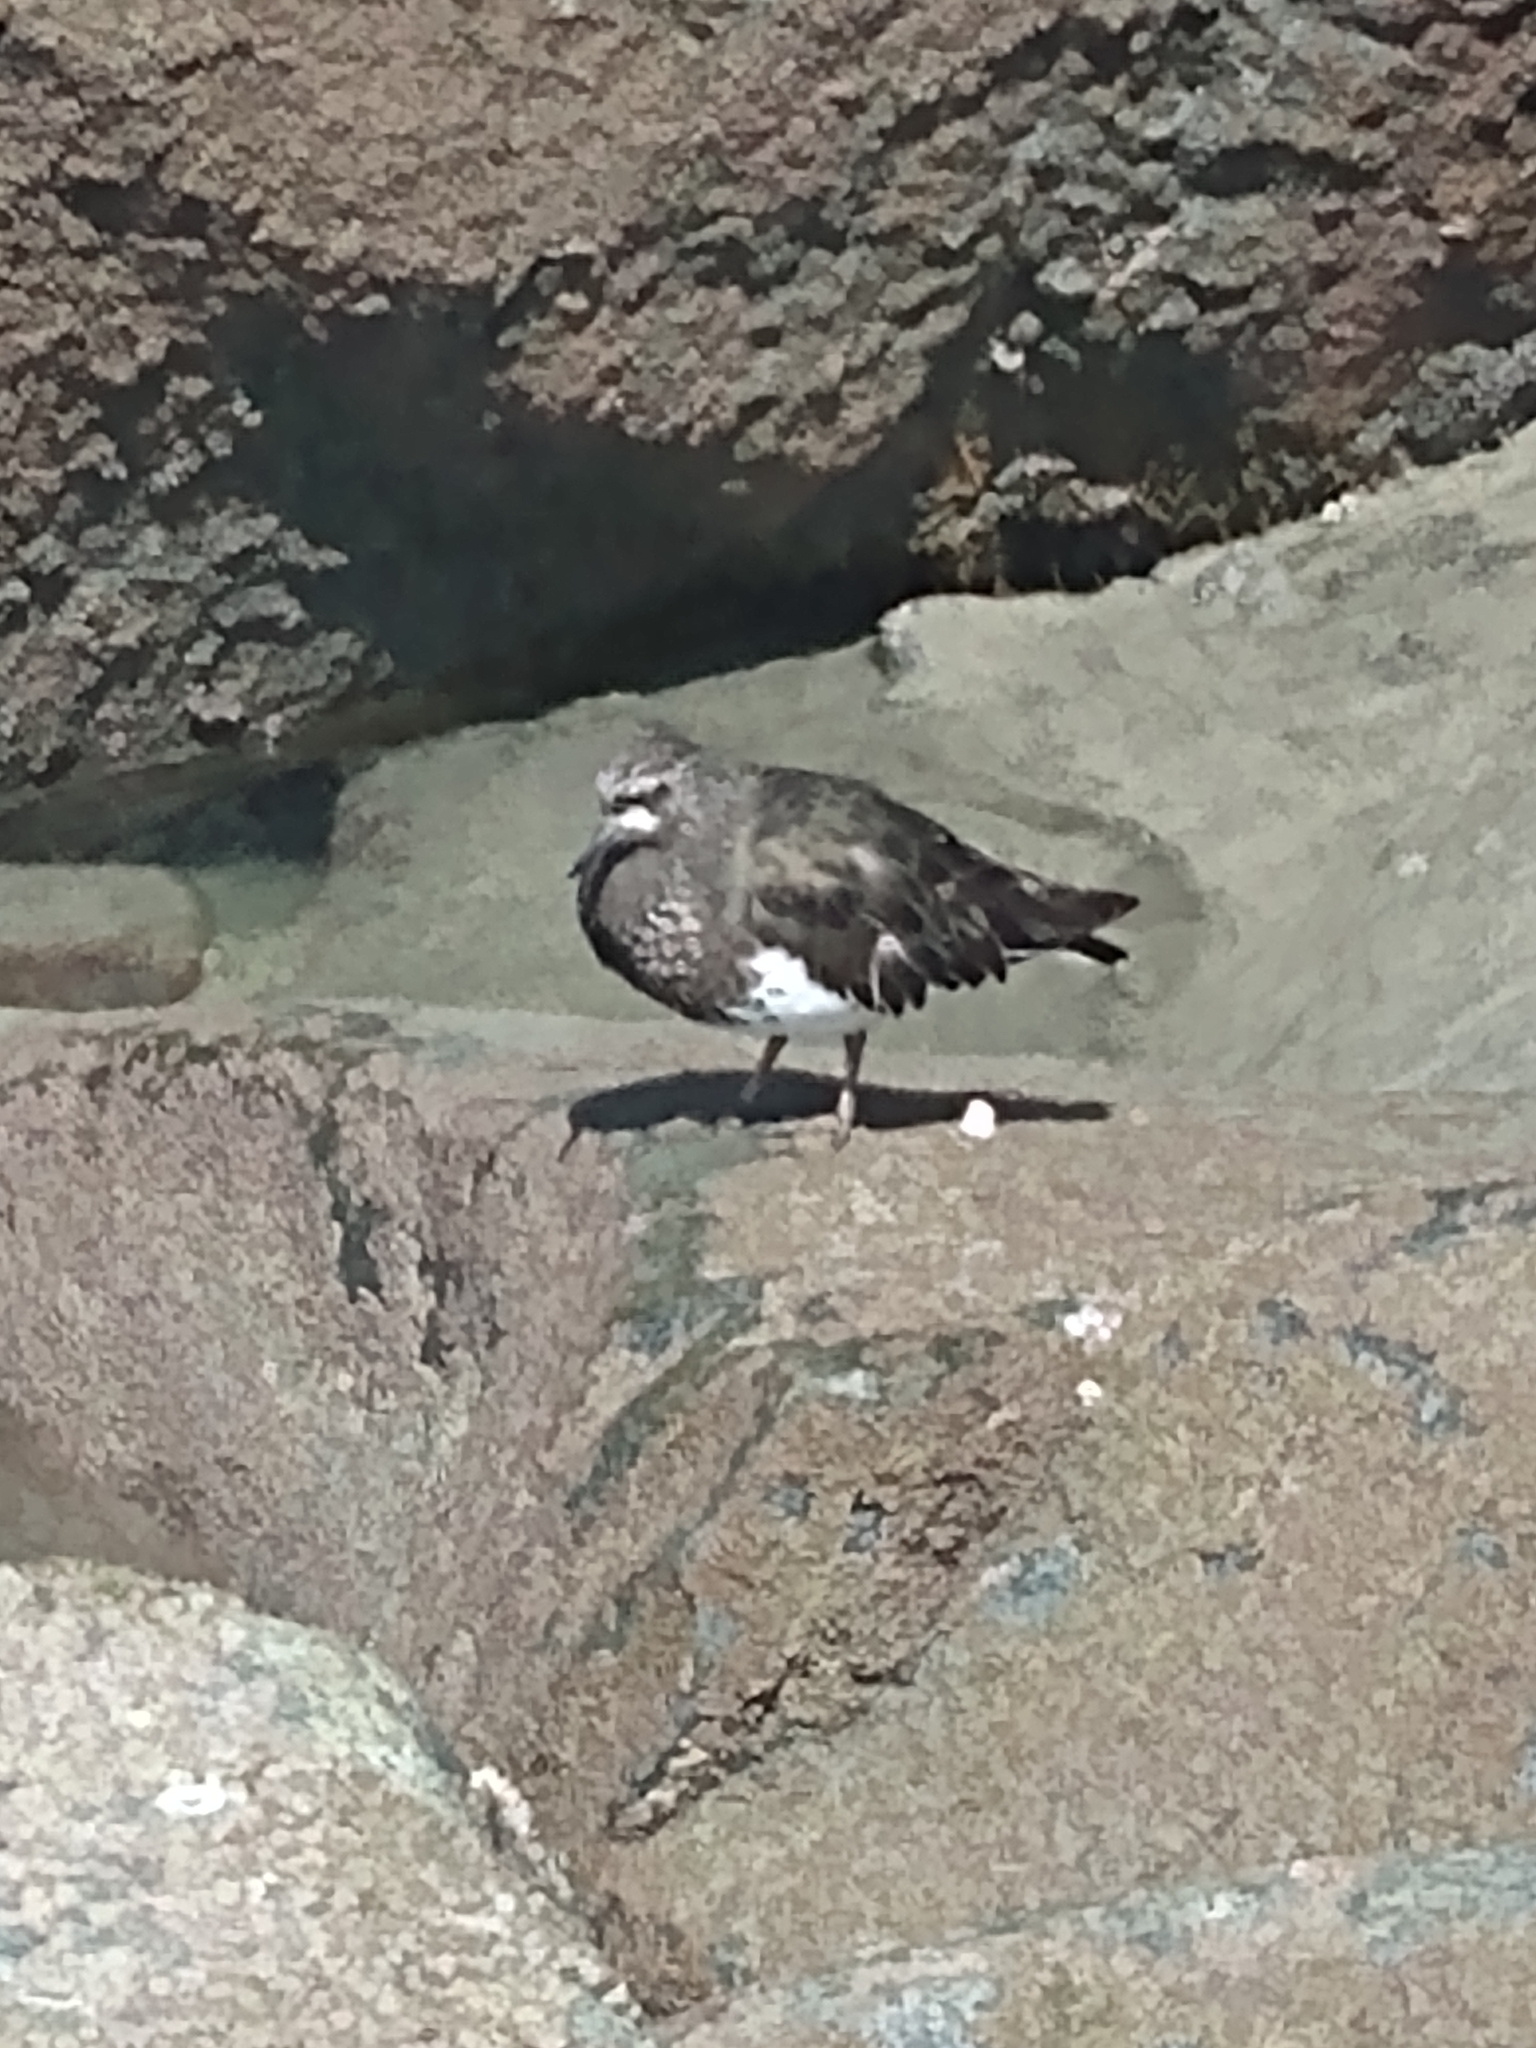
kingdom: Animalia
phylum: Chordata
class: Aves
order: Charadriiformes
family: Scolopacidae
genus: Arenaria
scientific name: Arenaria melanocephala
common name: Black turnstone
